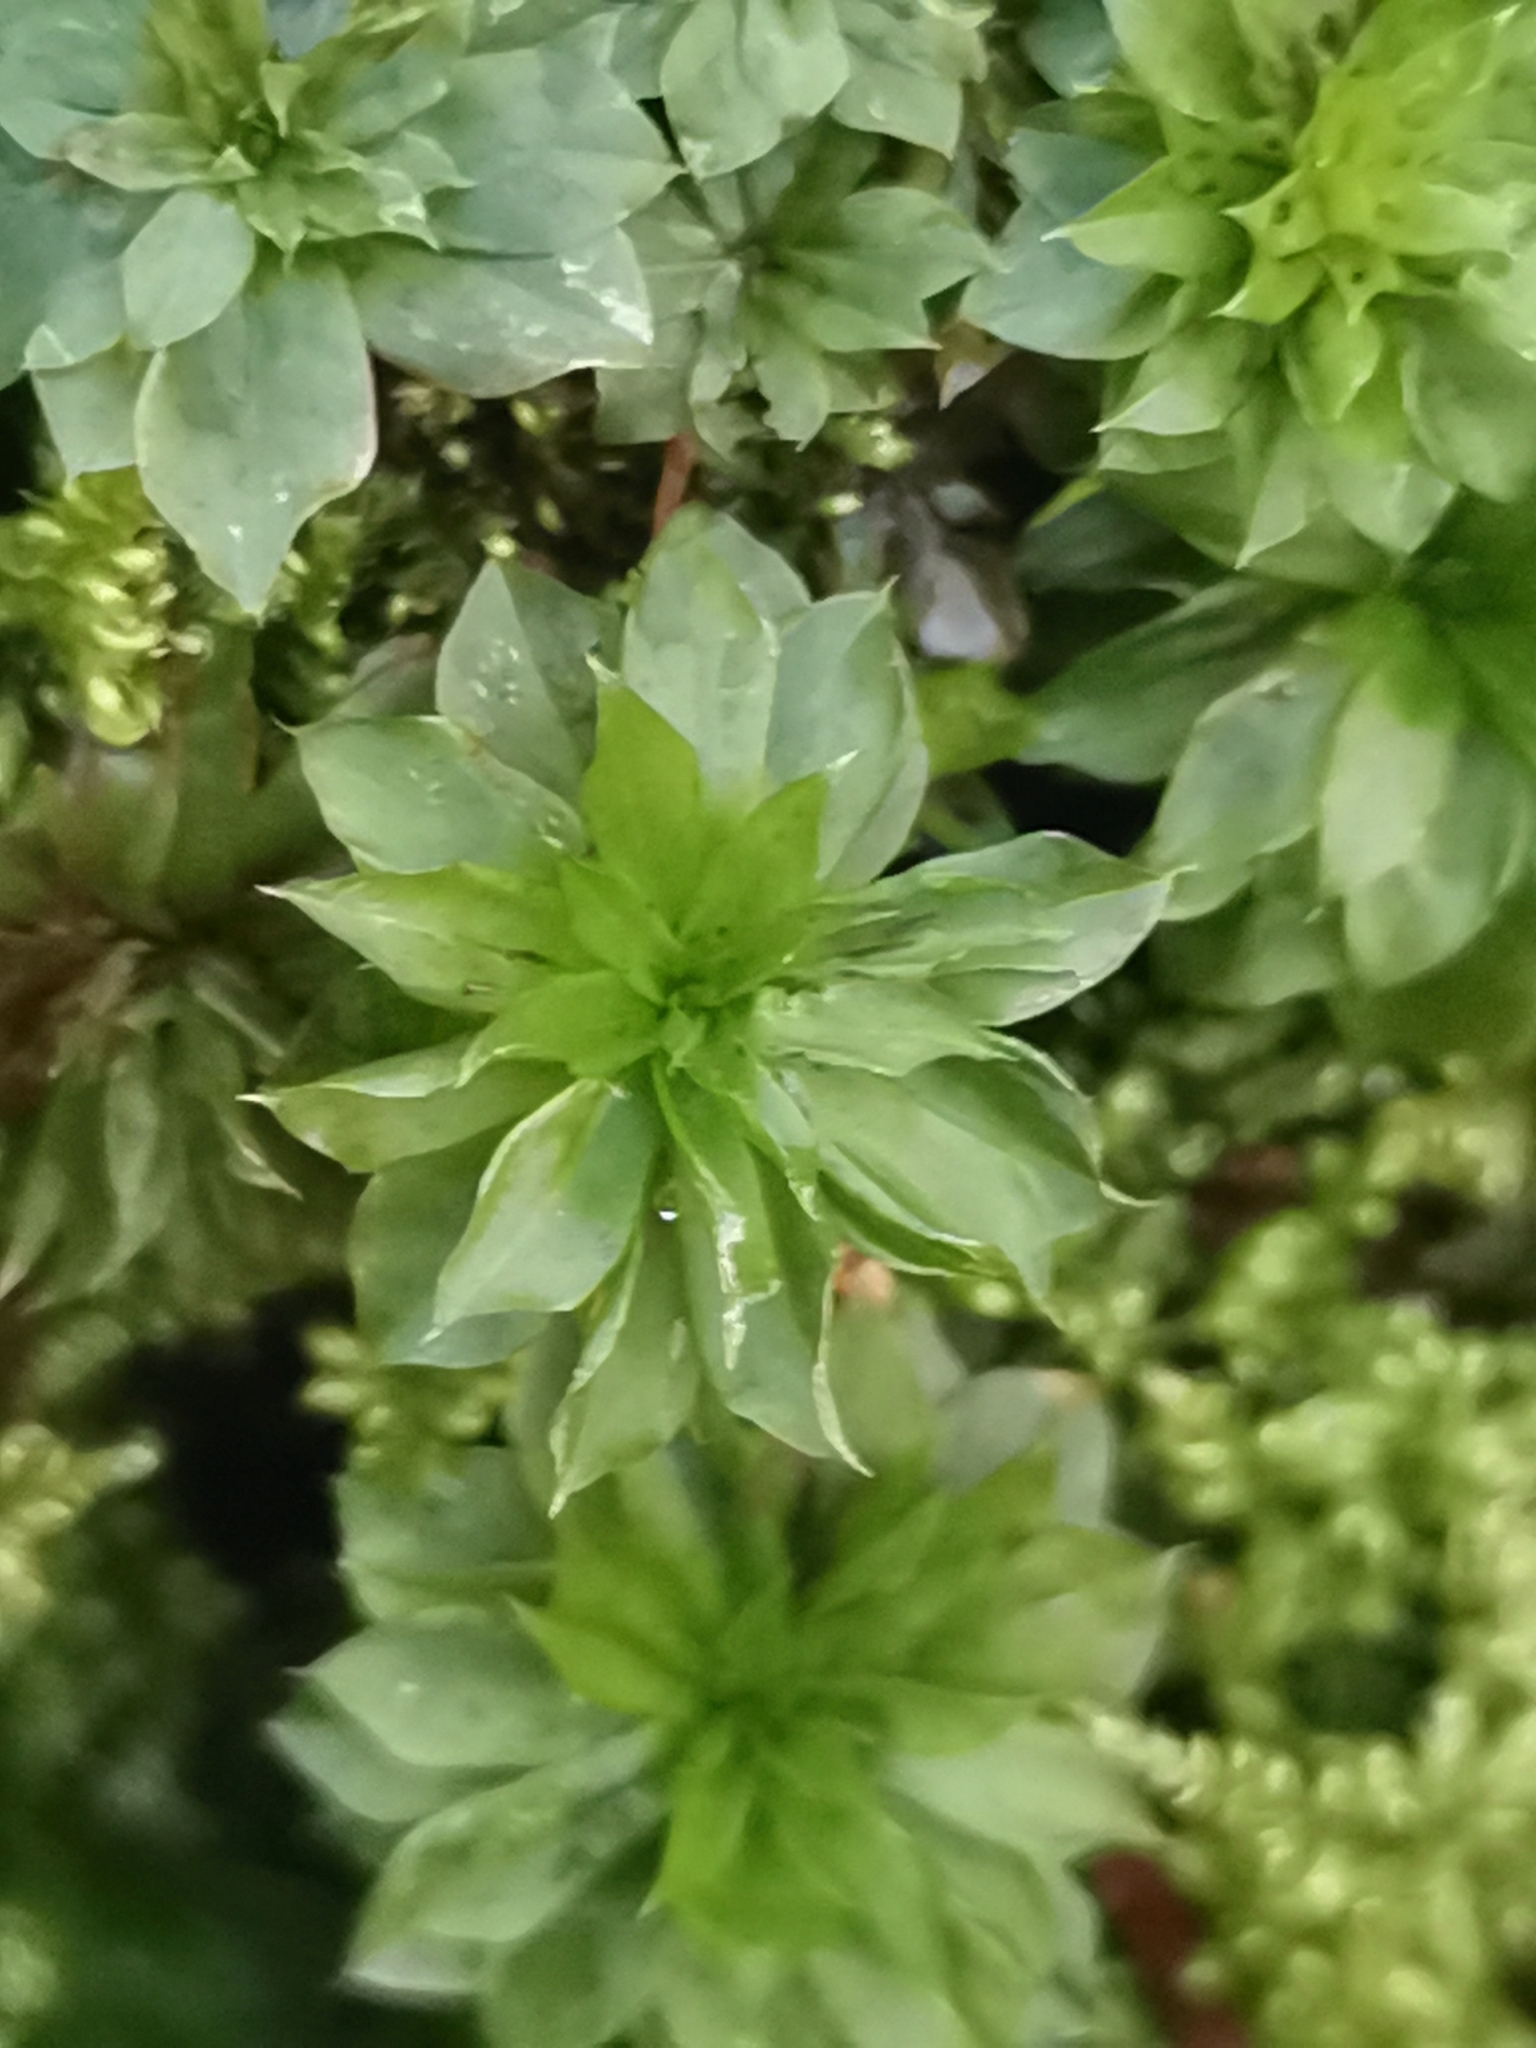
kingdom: Plantae
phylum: Bryophyta
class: Bryopsida
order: Bryales
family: Bryaceae
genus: Rhodobryum
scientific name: Rhodobryum ontariense
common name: Ontario rhodobryum moss
